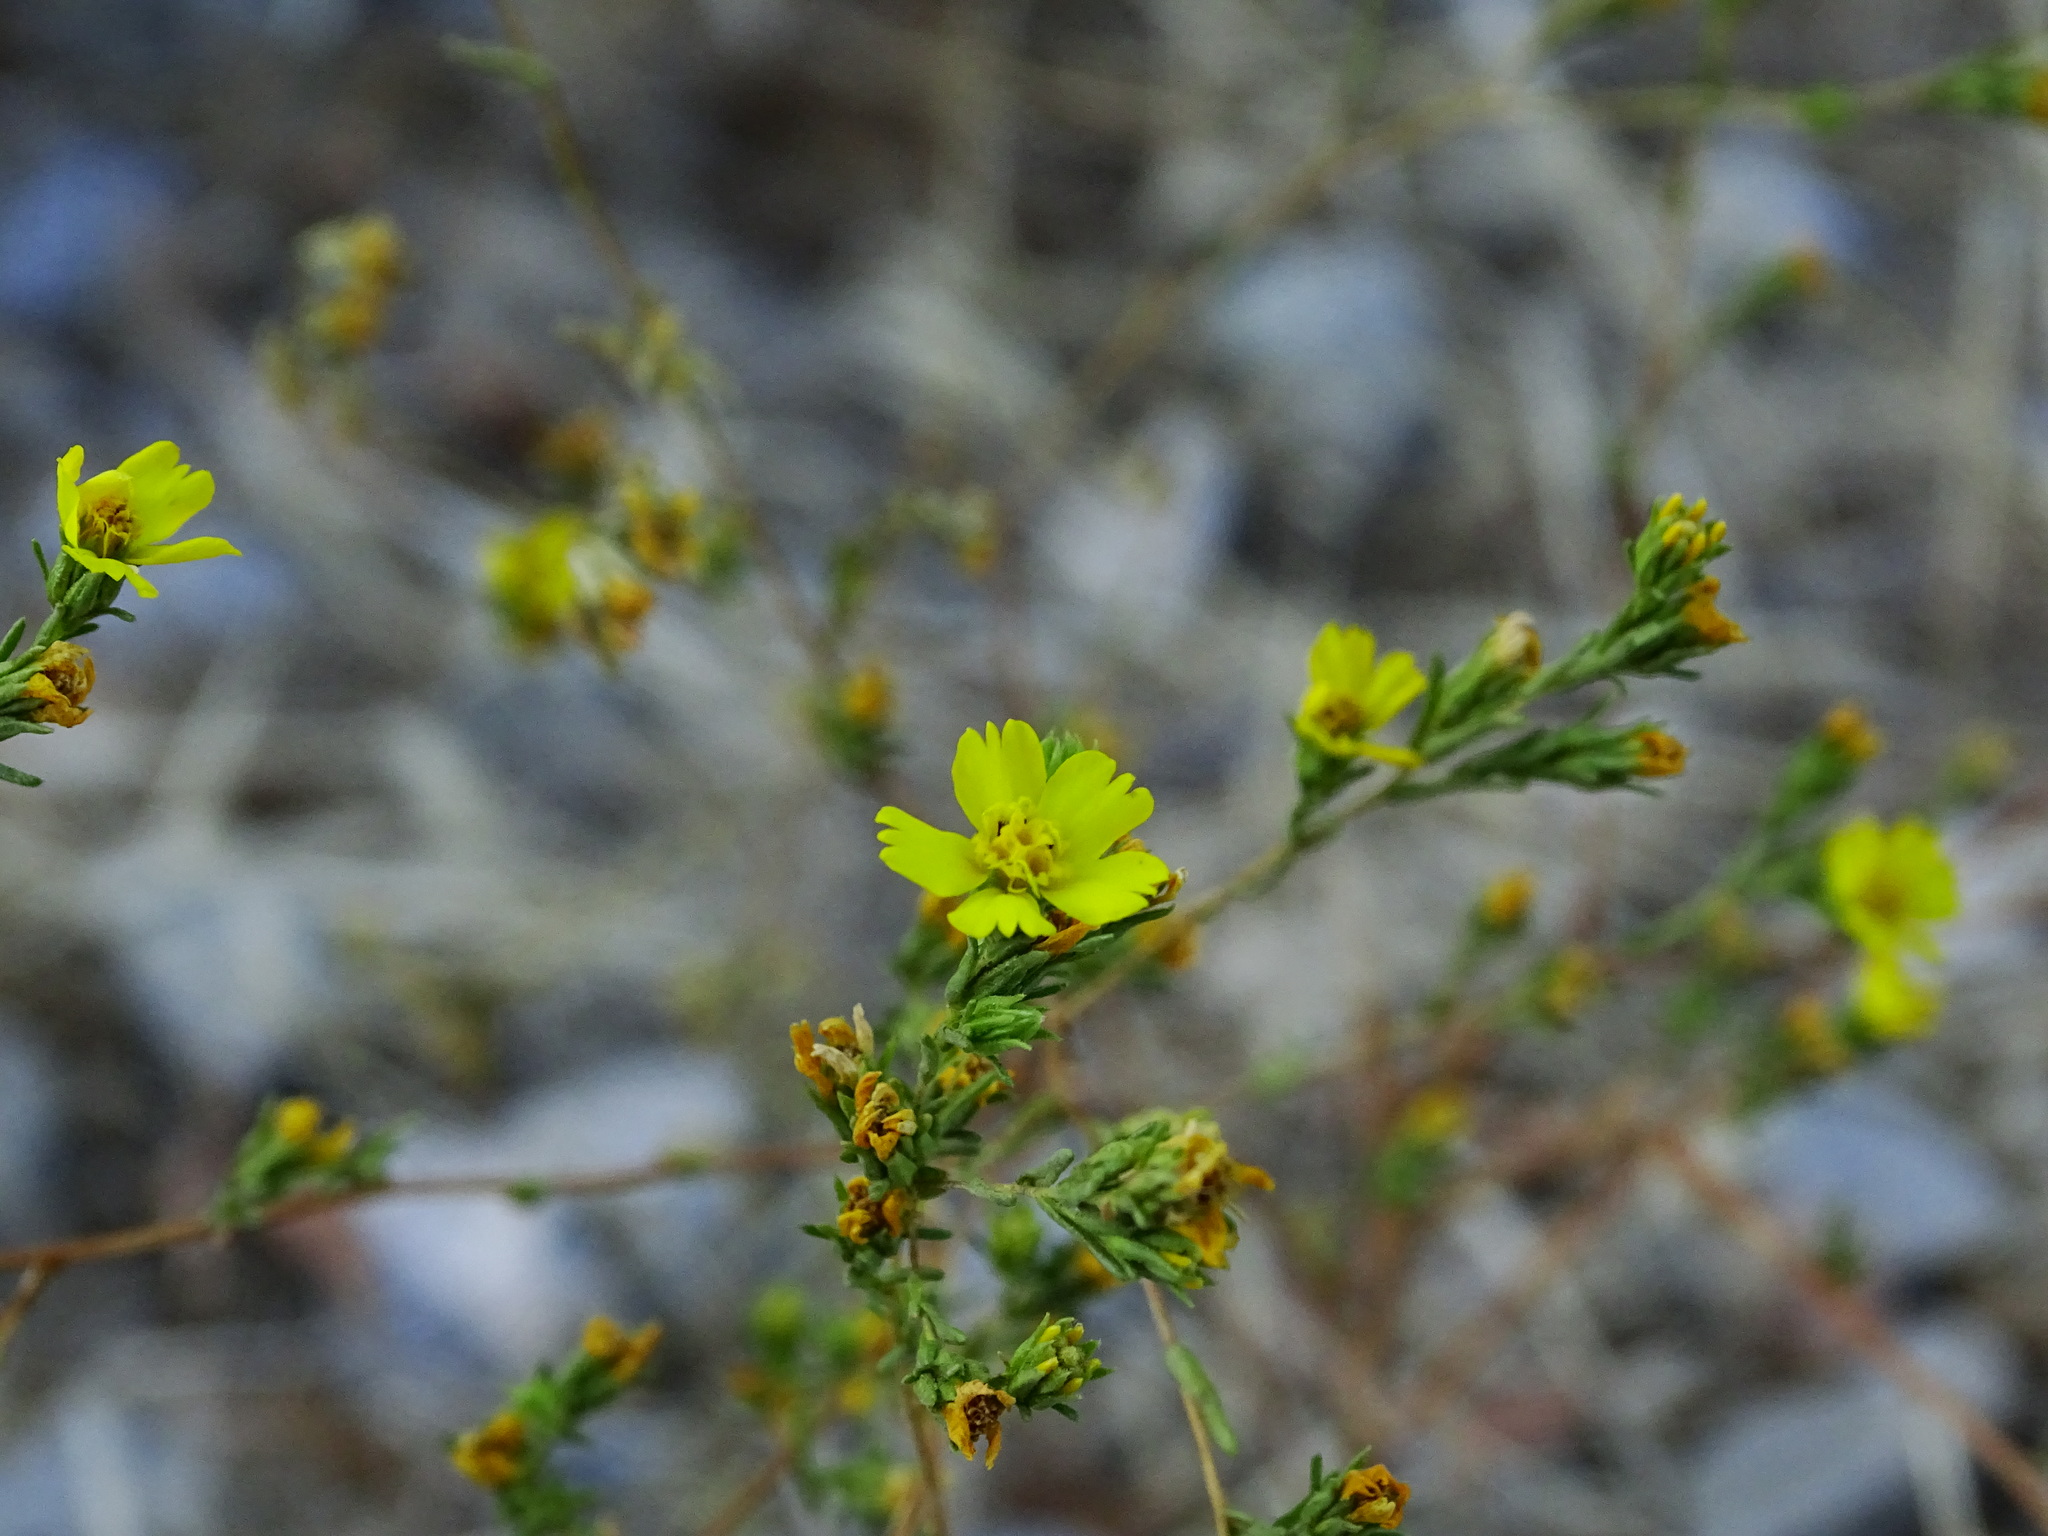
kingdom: Plantae
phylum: Tracheophyta
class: Magnoliopsida
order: Asterales
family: Asteraceae
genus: Deinandra
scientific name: Deinandra fasciculata
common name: Clustered tarweed
